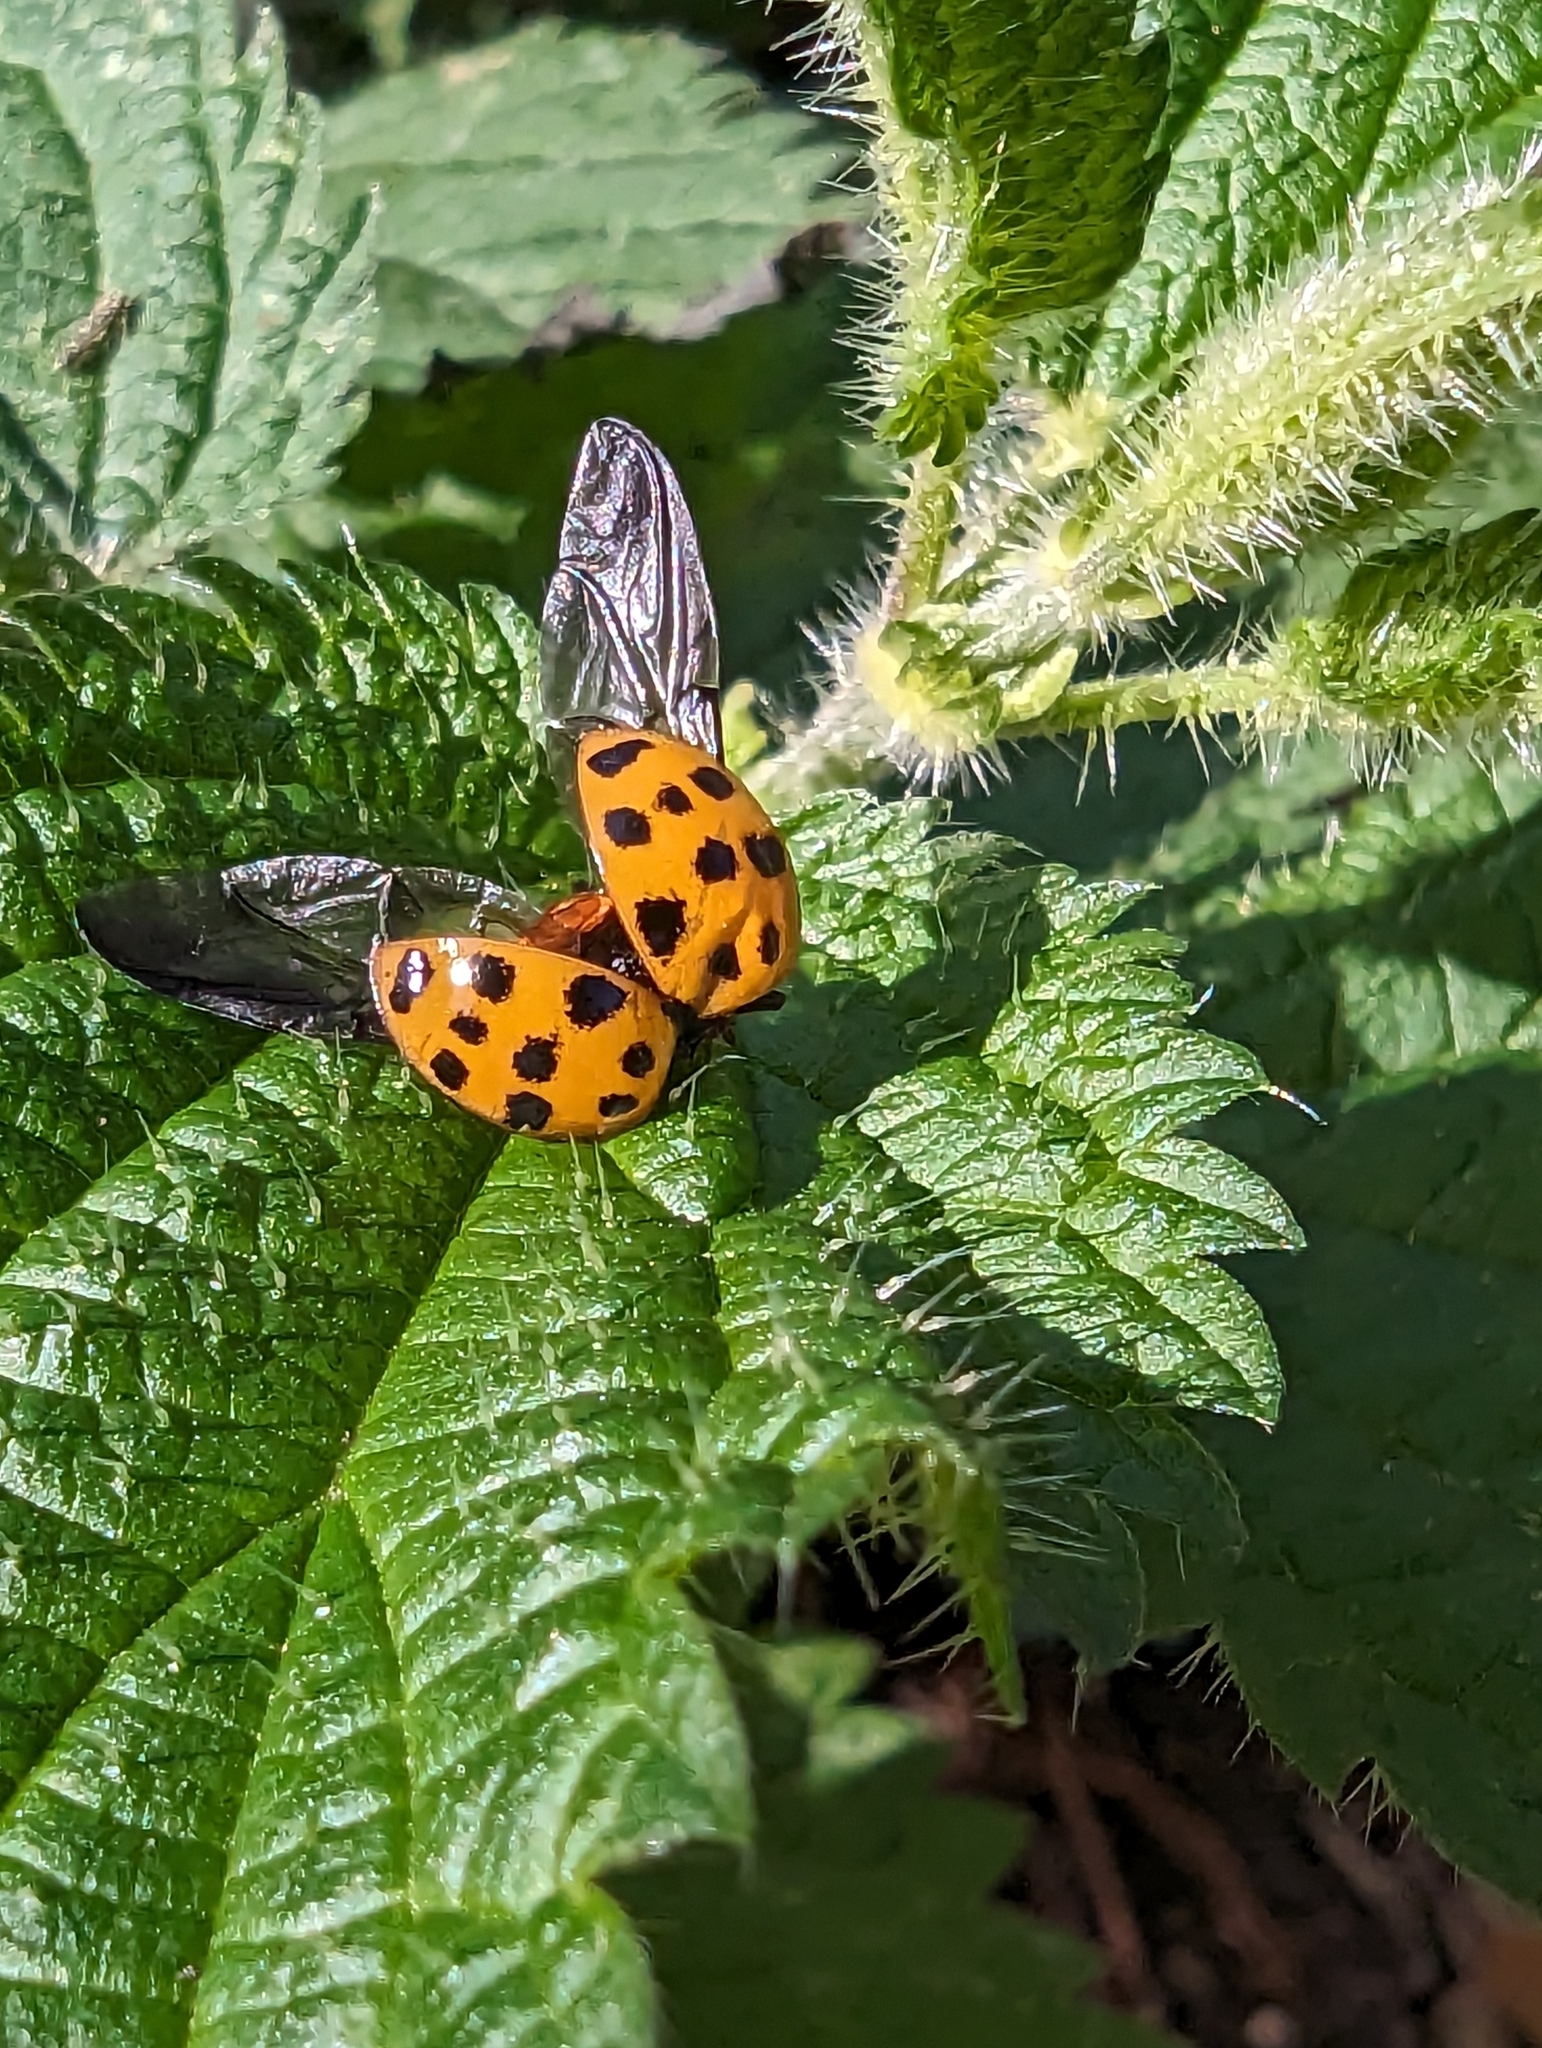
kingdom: Animalia
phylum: Arthropoda
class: Insecta
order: Coleoptera
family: Coccinellidae
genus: Harmonia
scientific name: Harmonia axyridis
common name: Harlequin ladybird
